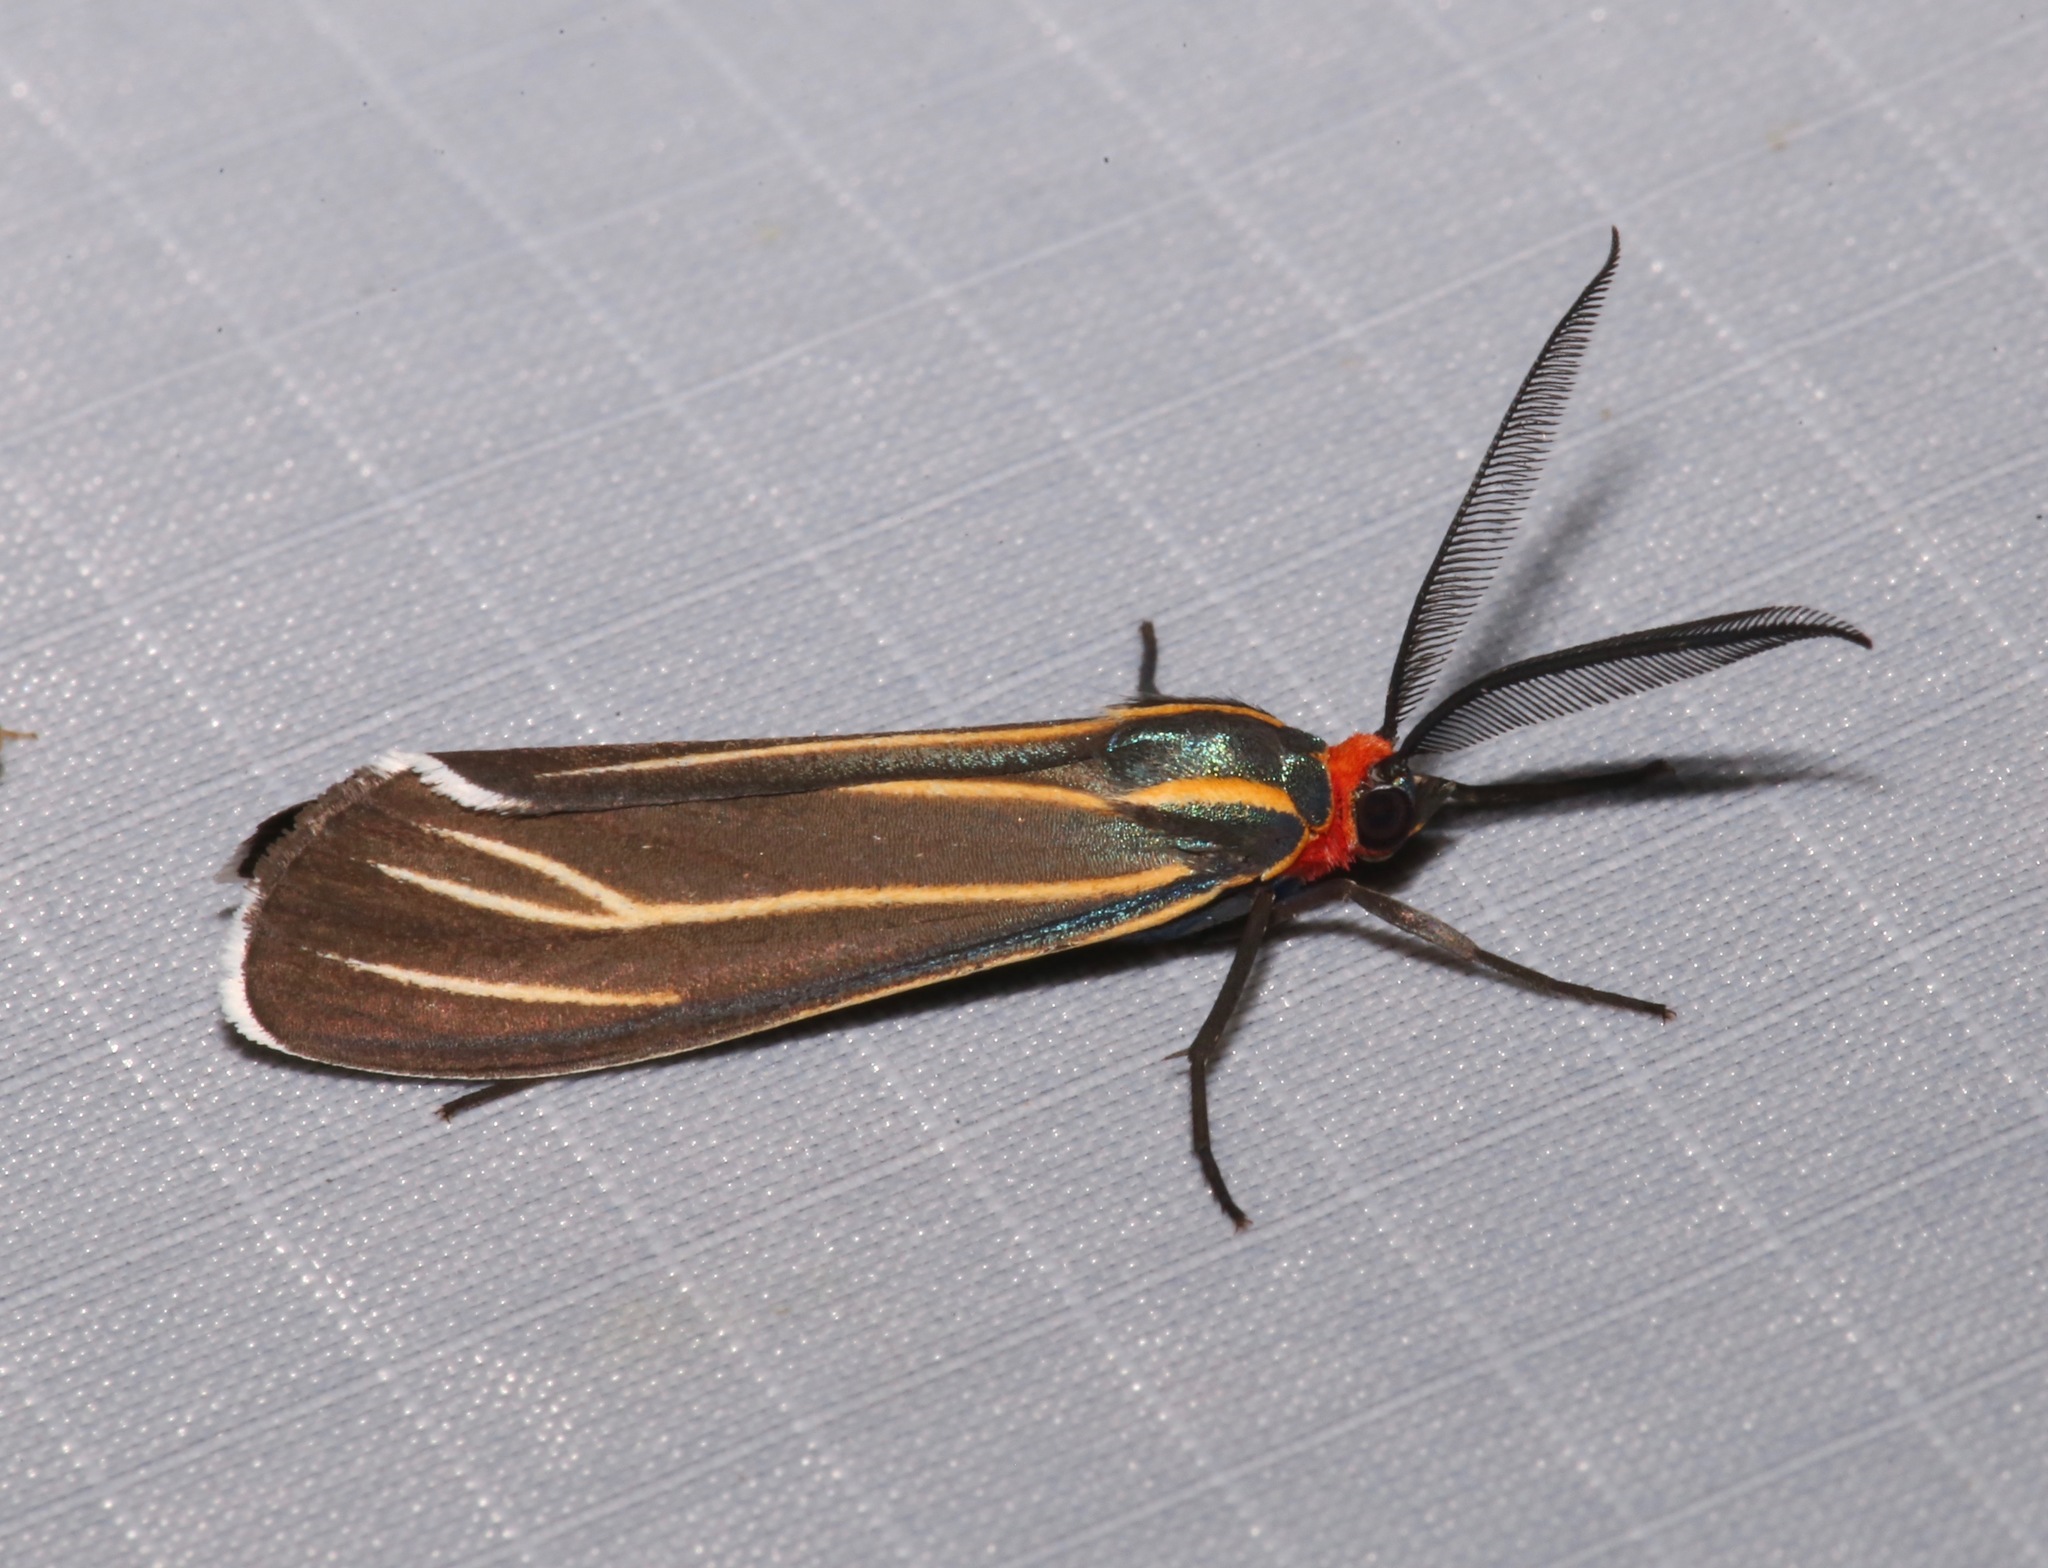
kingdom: Animalia
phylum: Arthropoda
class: Insecta
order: Lepidoptera
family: Erebidae
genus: Ctenucha
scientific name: Ctenucha venosa
